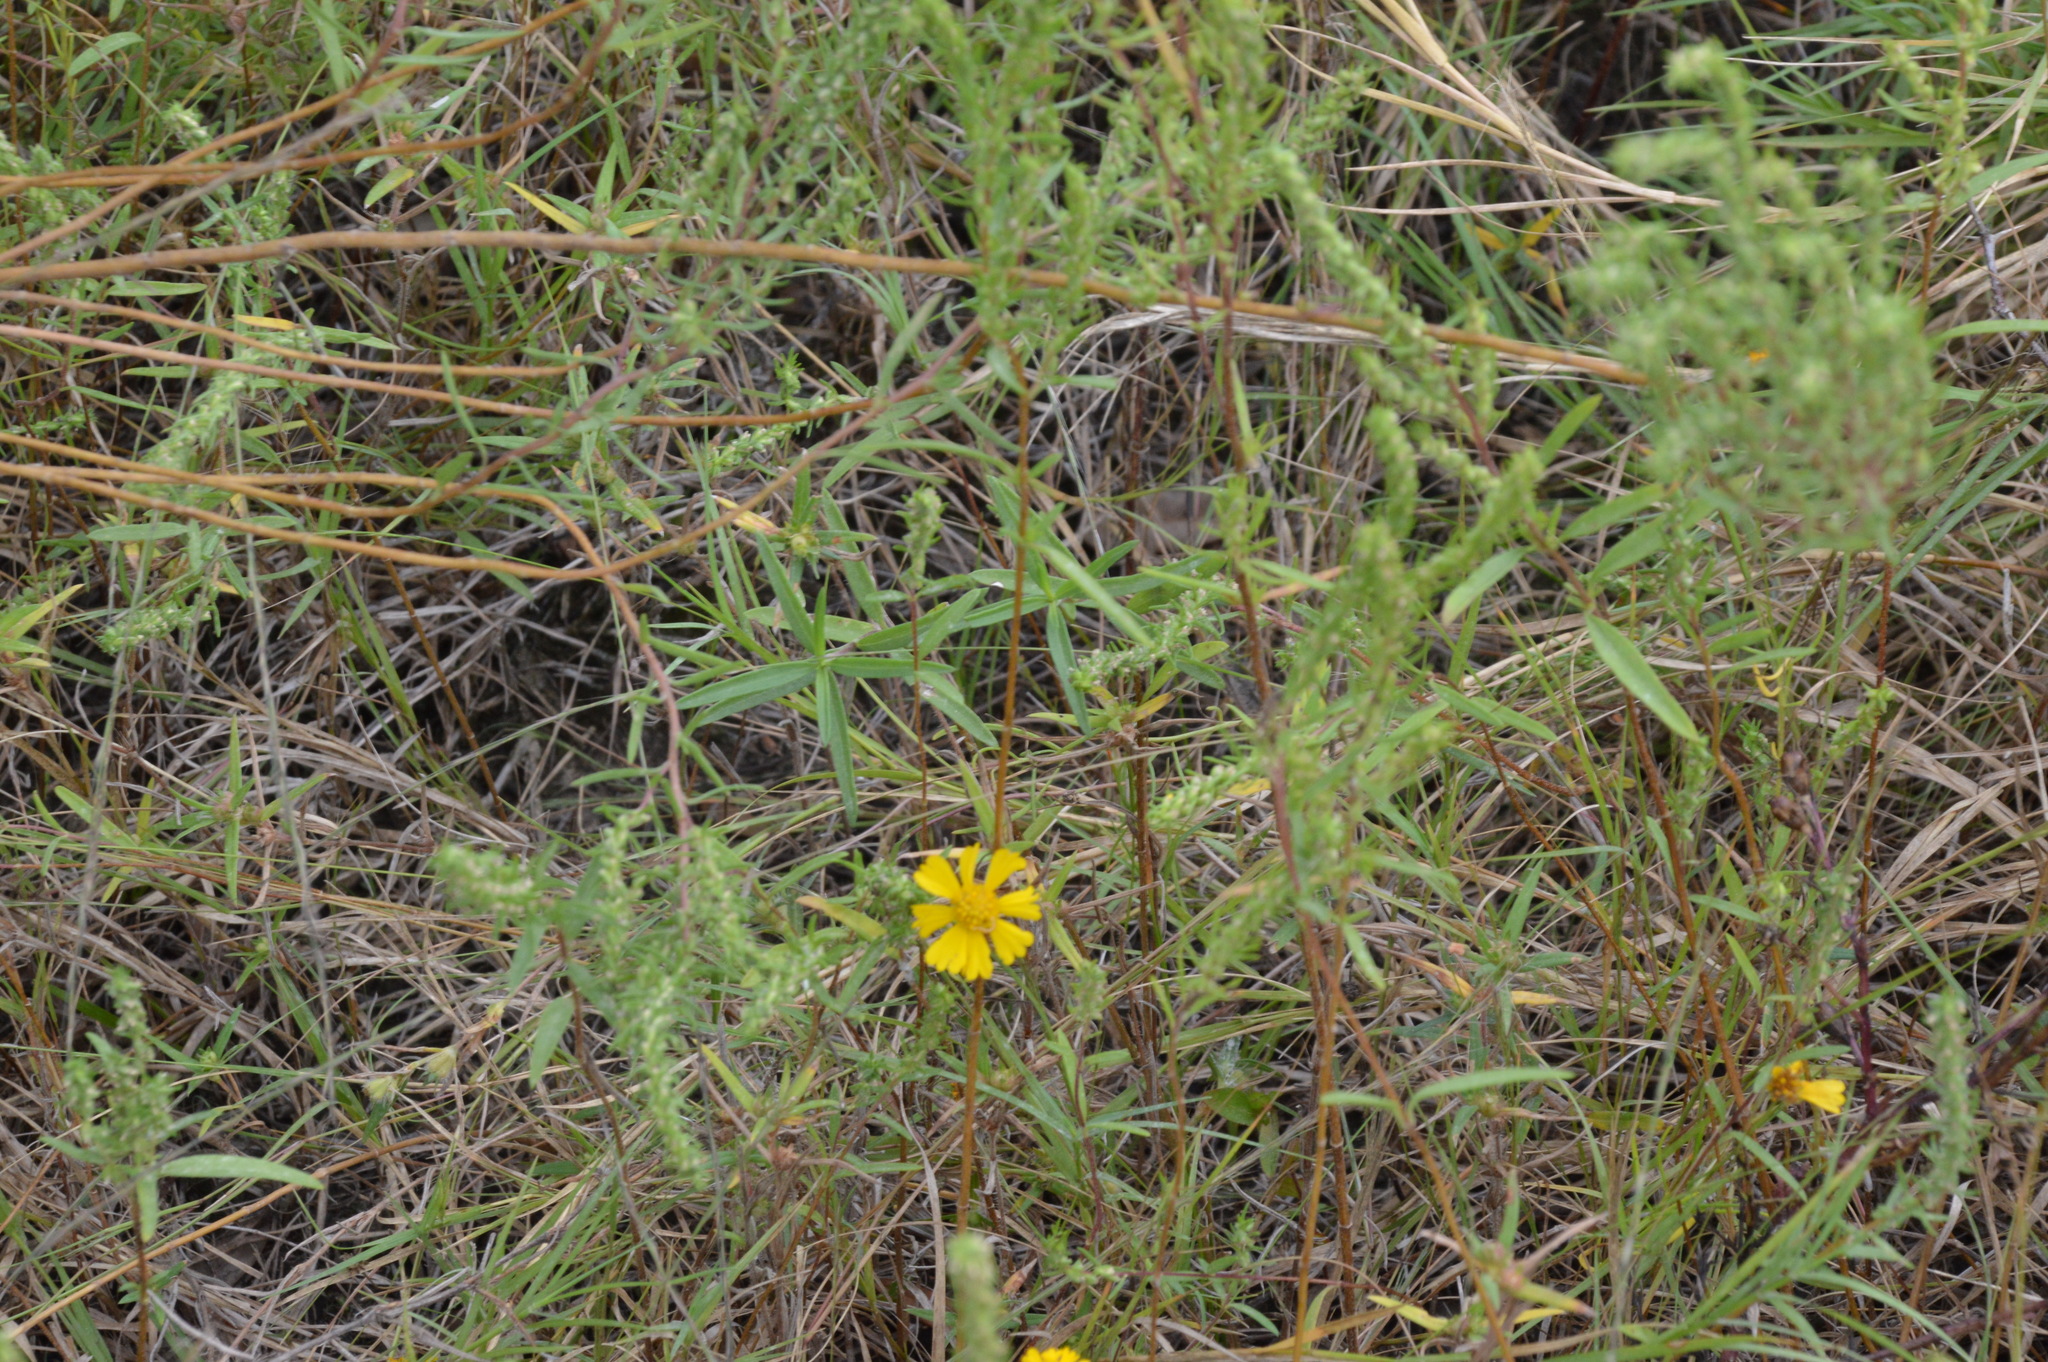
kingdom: Plantae
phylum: Tracheophyta
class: Magnoliopsida
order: Asterales
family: Asteraceae
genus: Helenium
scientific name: Helenium amarum
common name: Bitter sneezeweed
